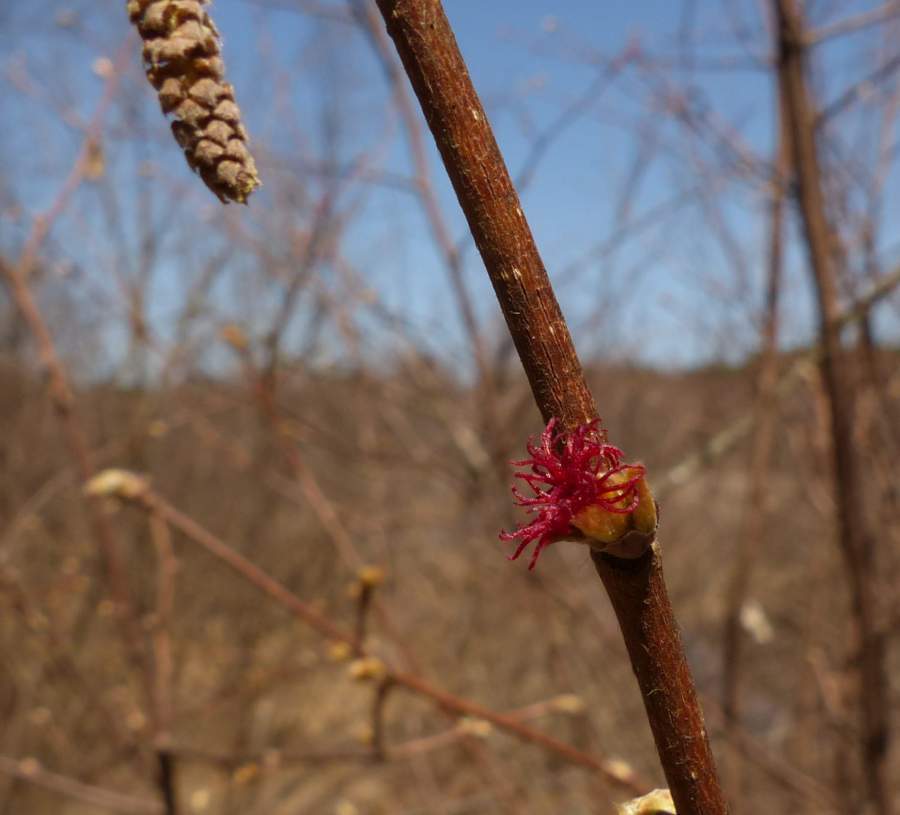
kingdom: Plantae
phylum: Tracheophyta
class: Magnoliopsida
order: Fagales
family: Betulaceae
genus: Corylus
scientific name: Corylus cornuta
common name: Beaked hazel
